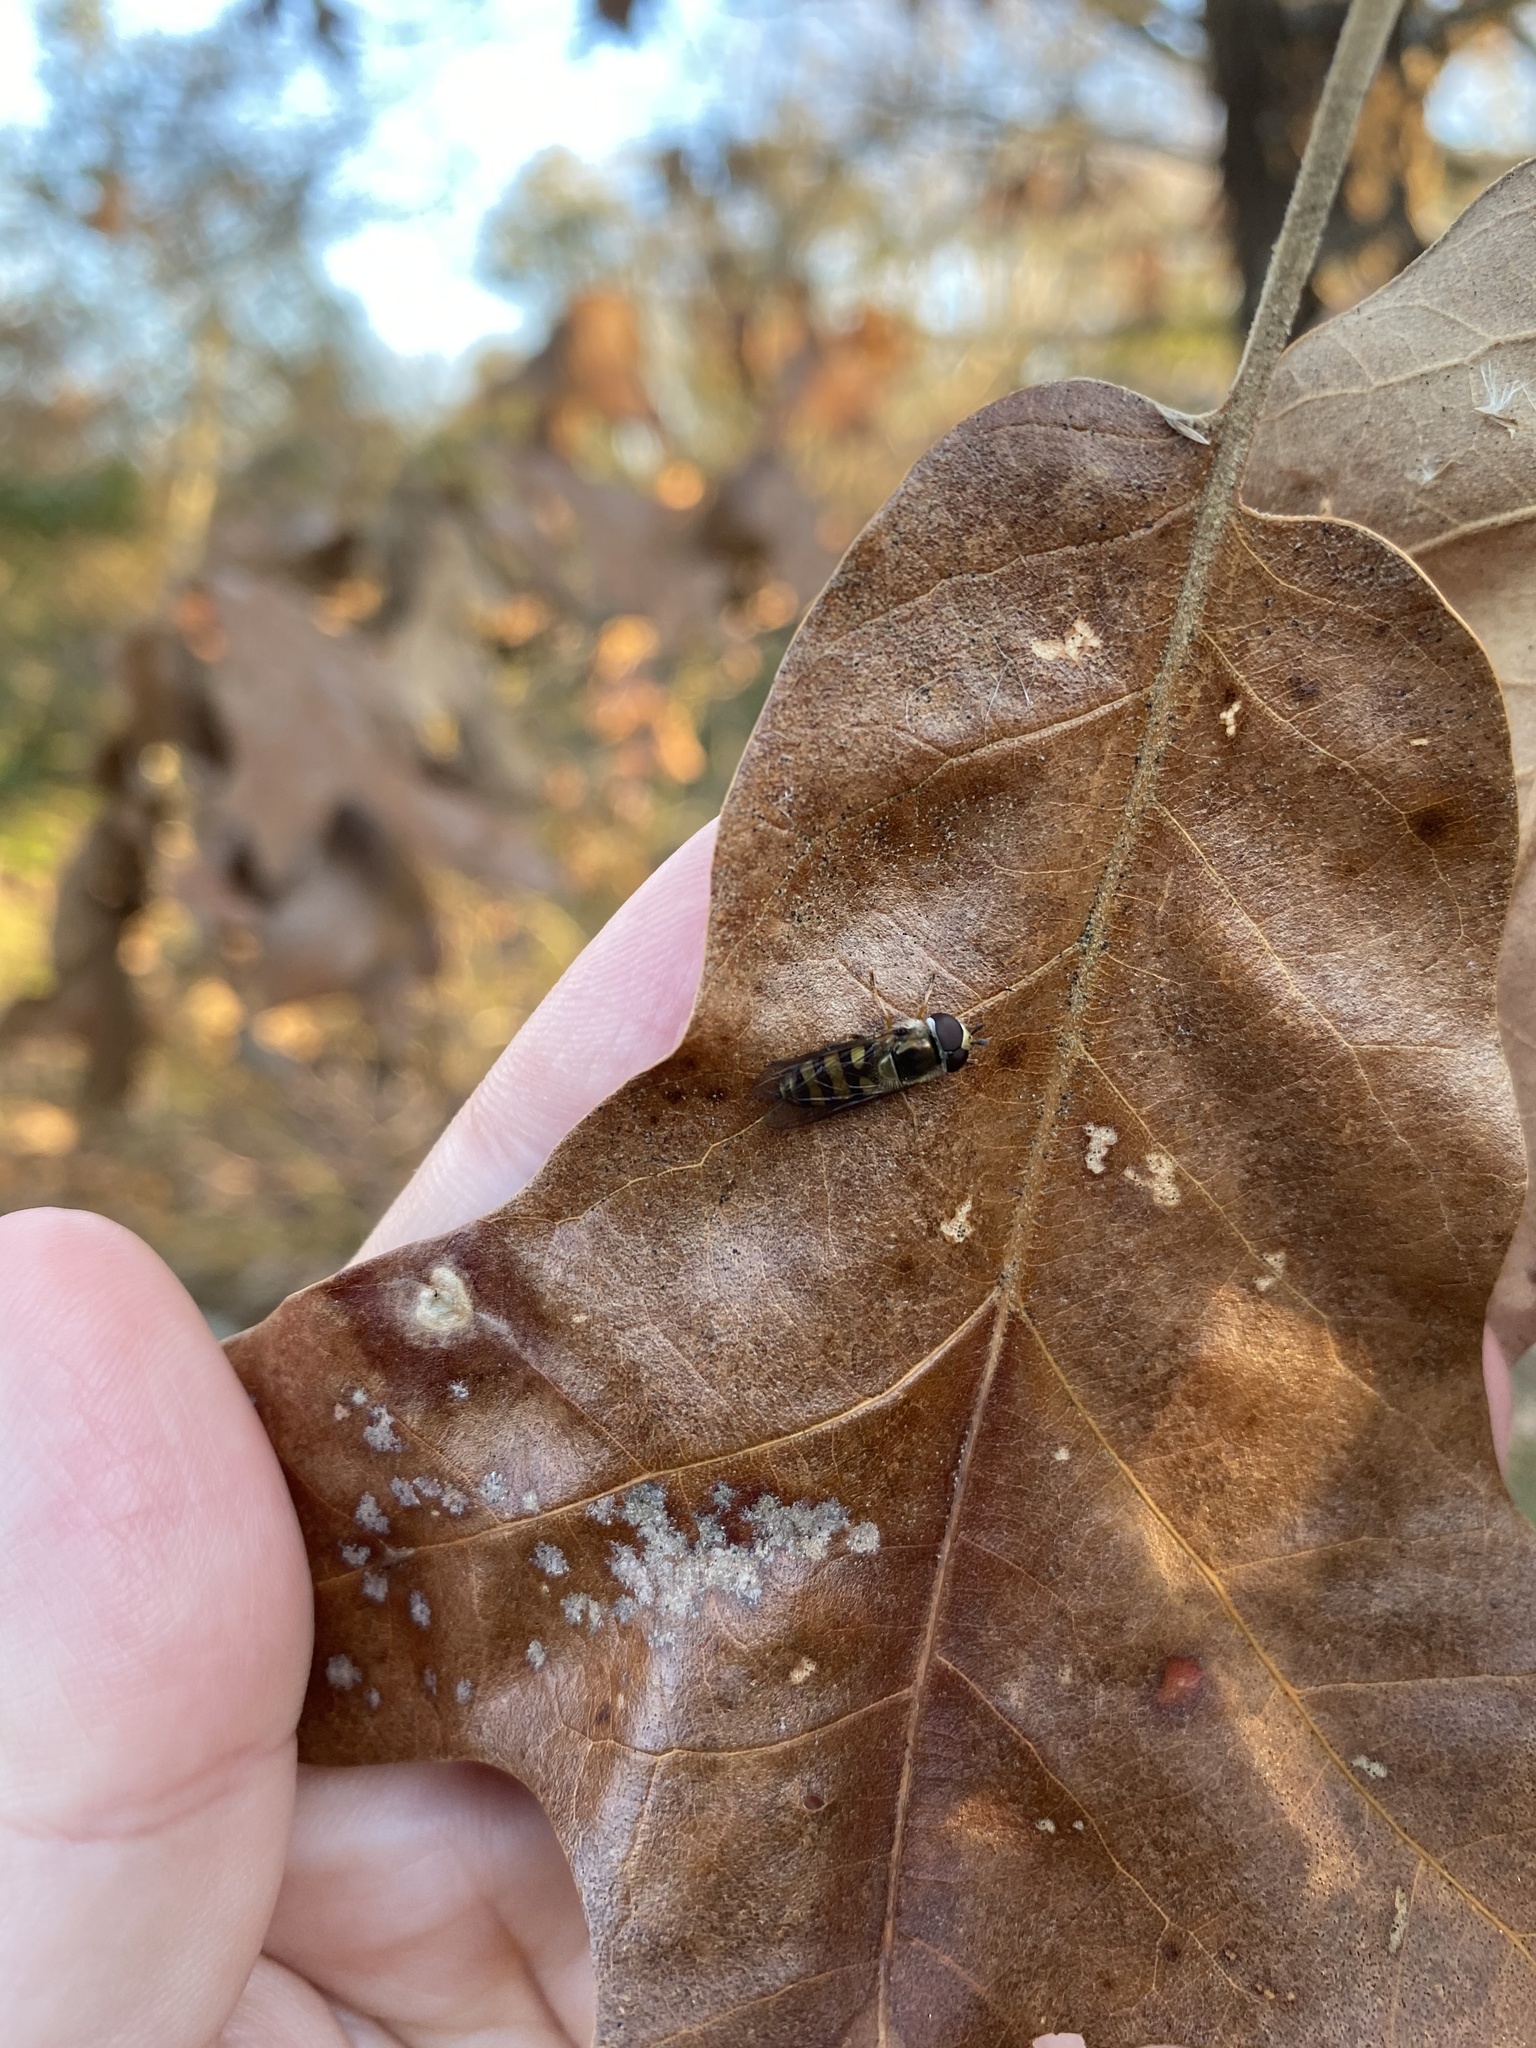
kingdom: Animalia
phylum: Arthropoda
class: Insecta
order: Diptera
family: Syrphidae
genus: Eupeodes
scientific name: Eupeodes
